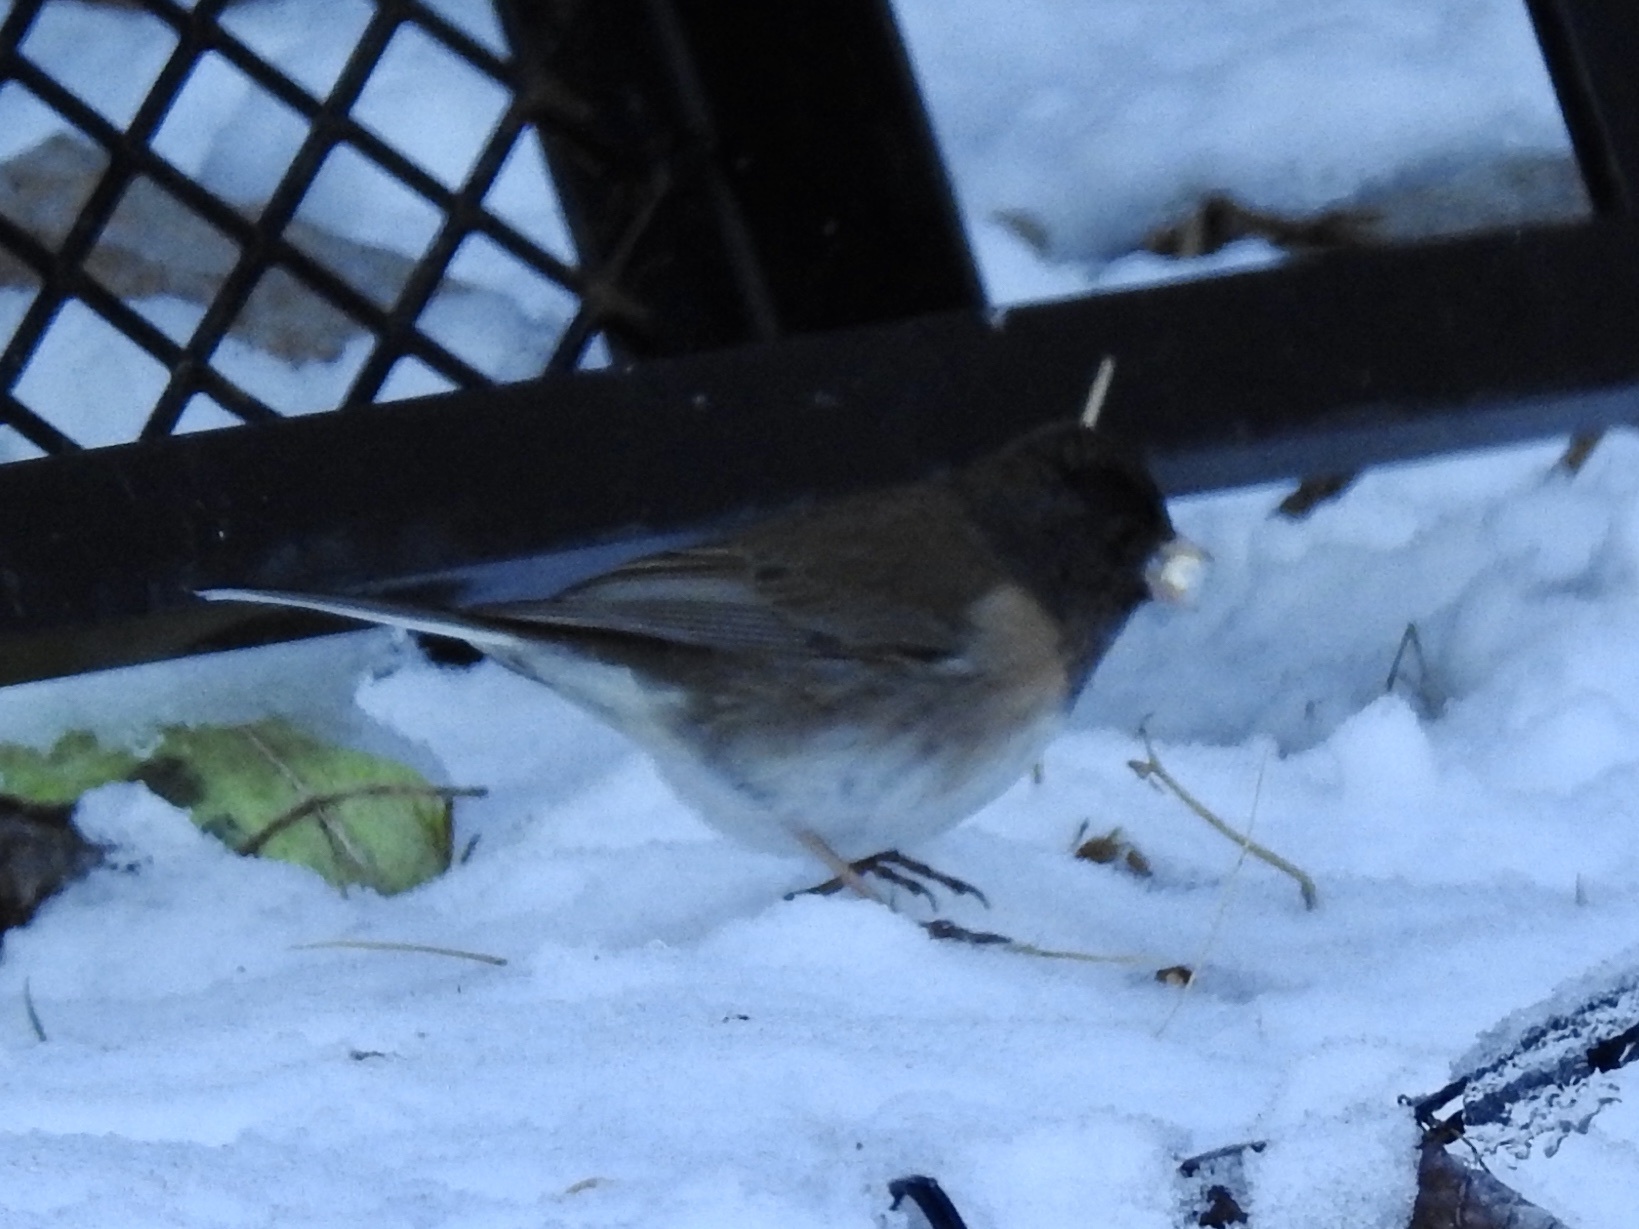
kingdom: Animalia
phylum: Chordata
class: Aves
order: Passeriformes
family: Passerellidae
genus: Junco
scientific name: Junco hyemalis
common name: Dark-eyed junco
